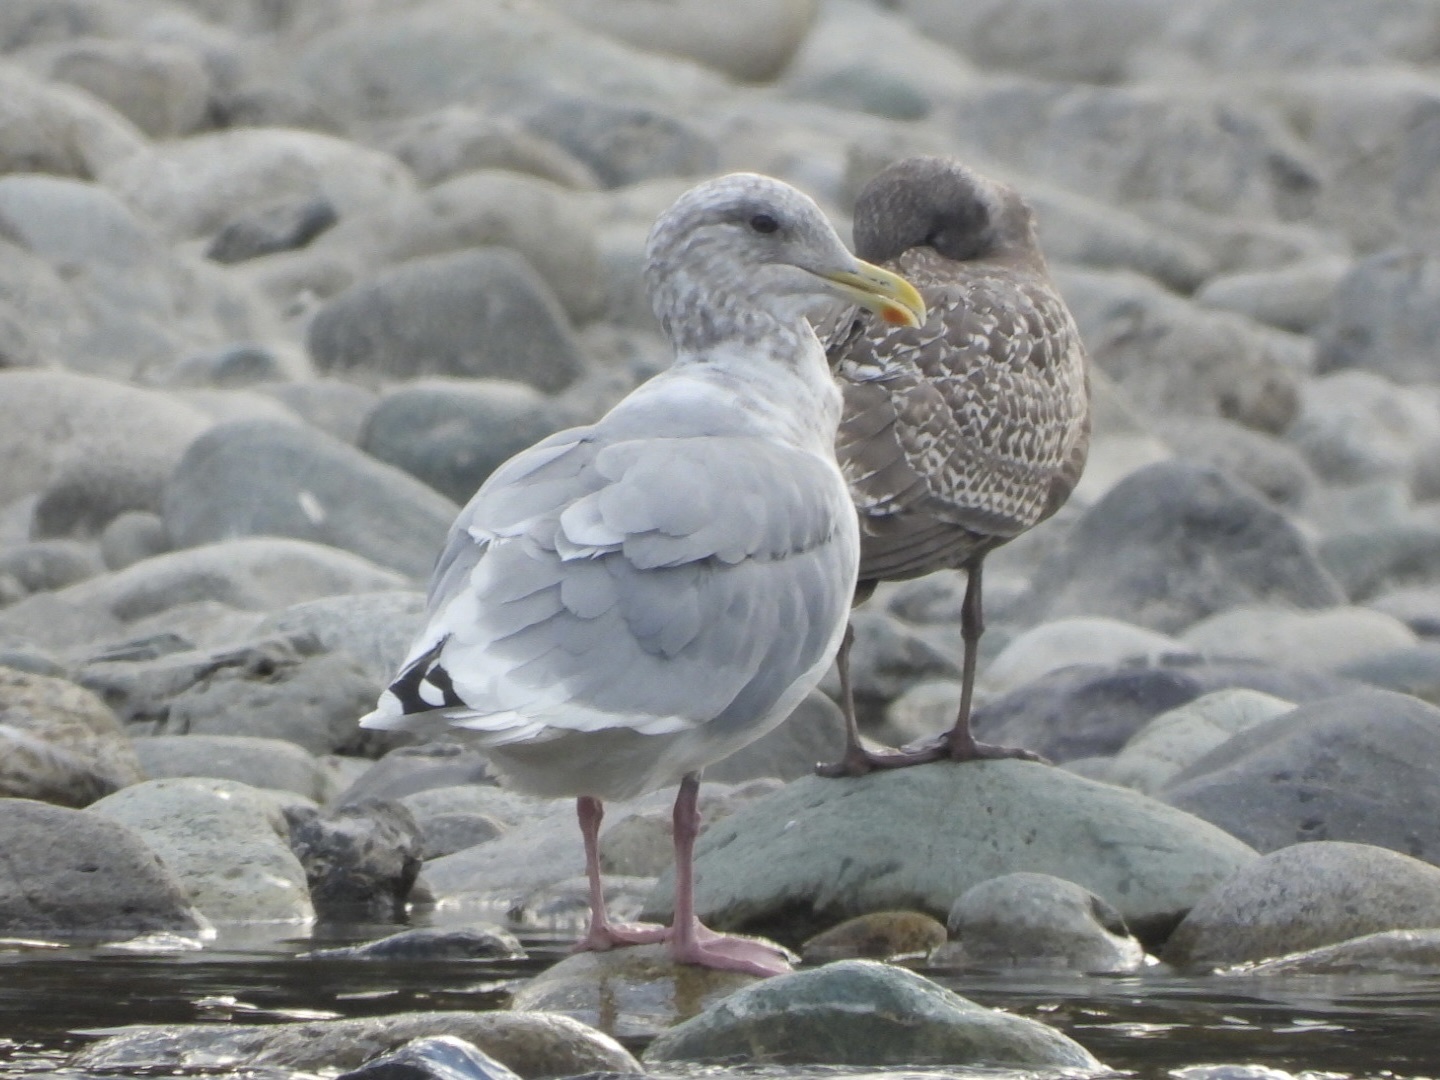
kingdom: Animalia
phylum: Chordata
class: Aves
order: Charadriiformes
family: Laridae
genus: Larus
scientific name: Larus glaucoides
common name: Iceland gull
